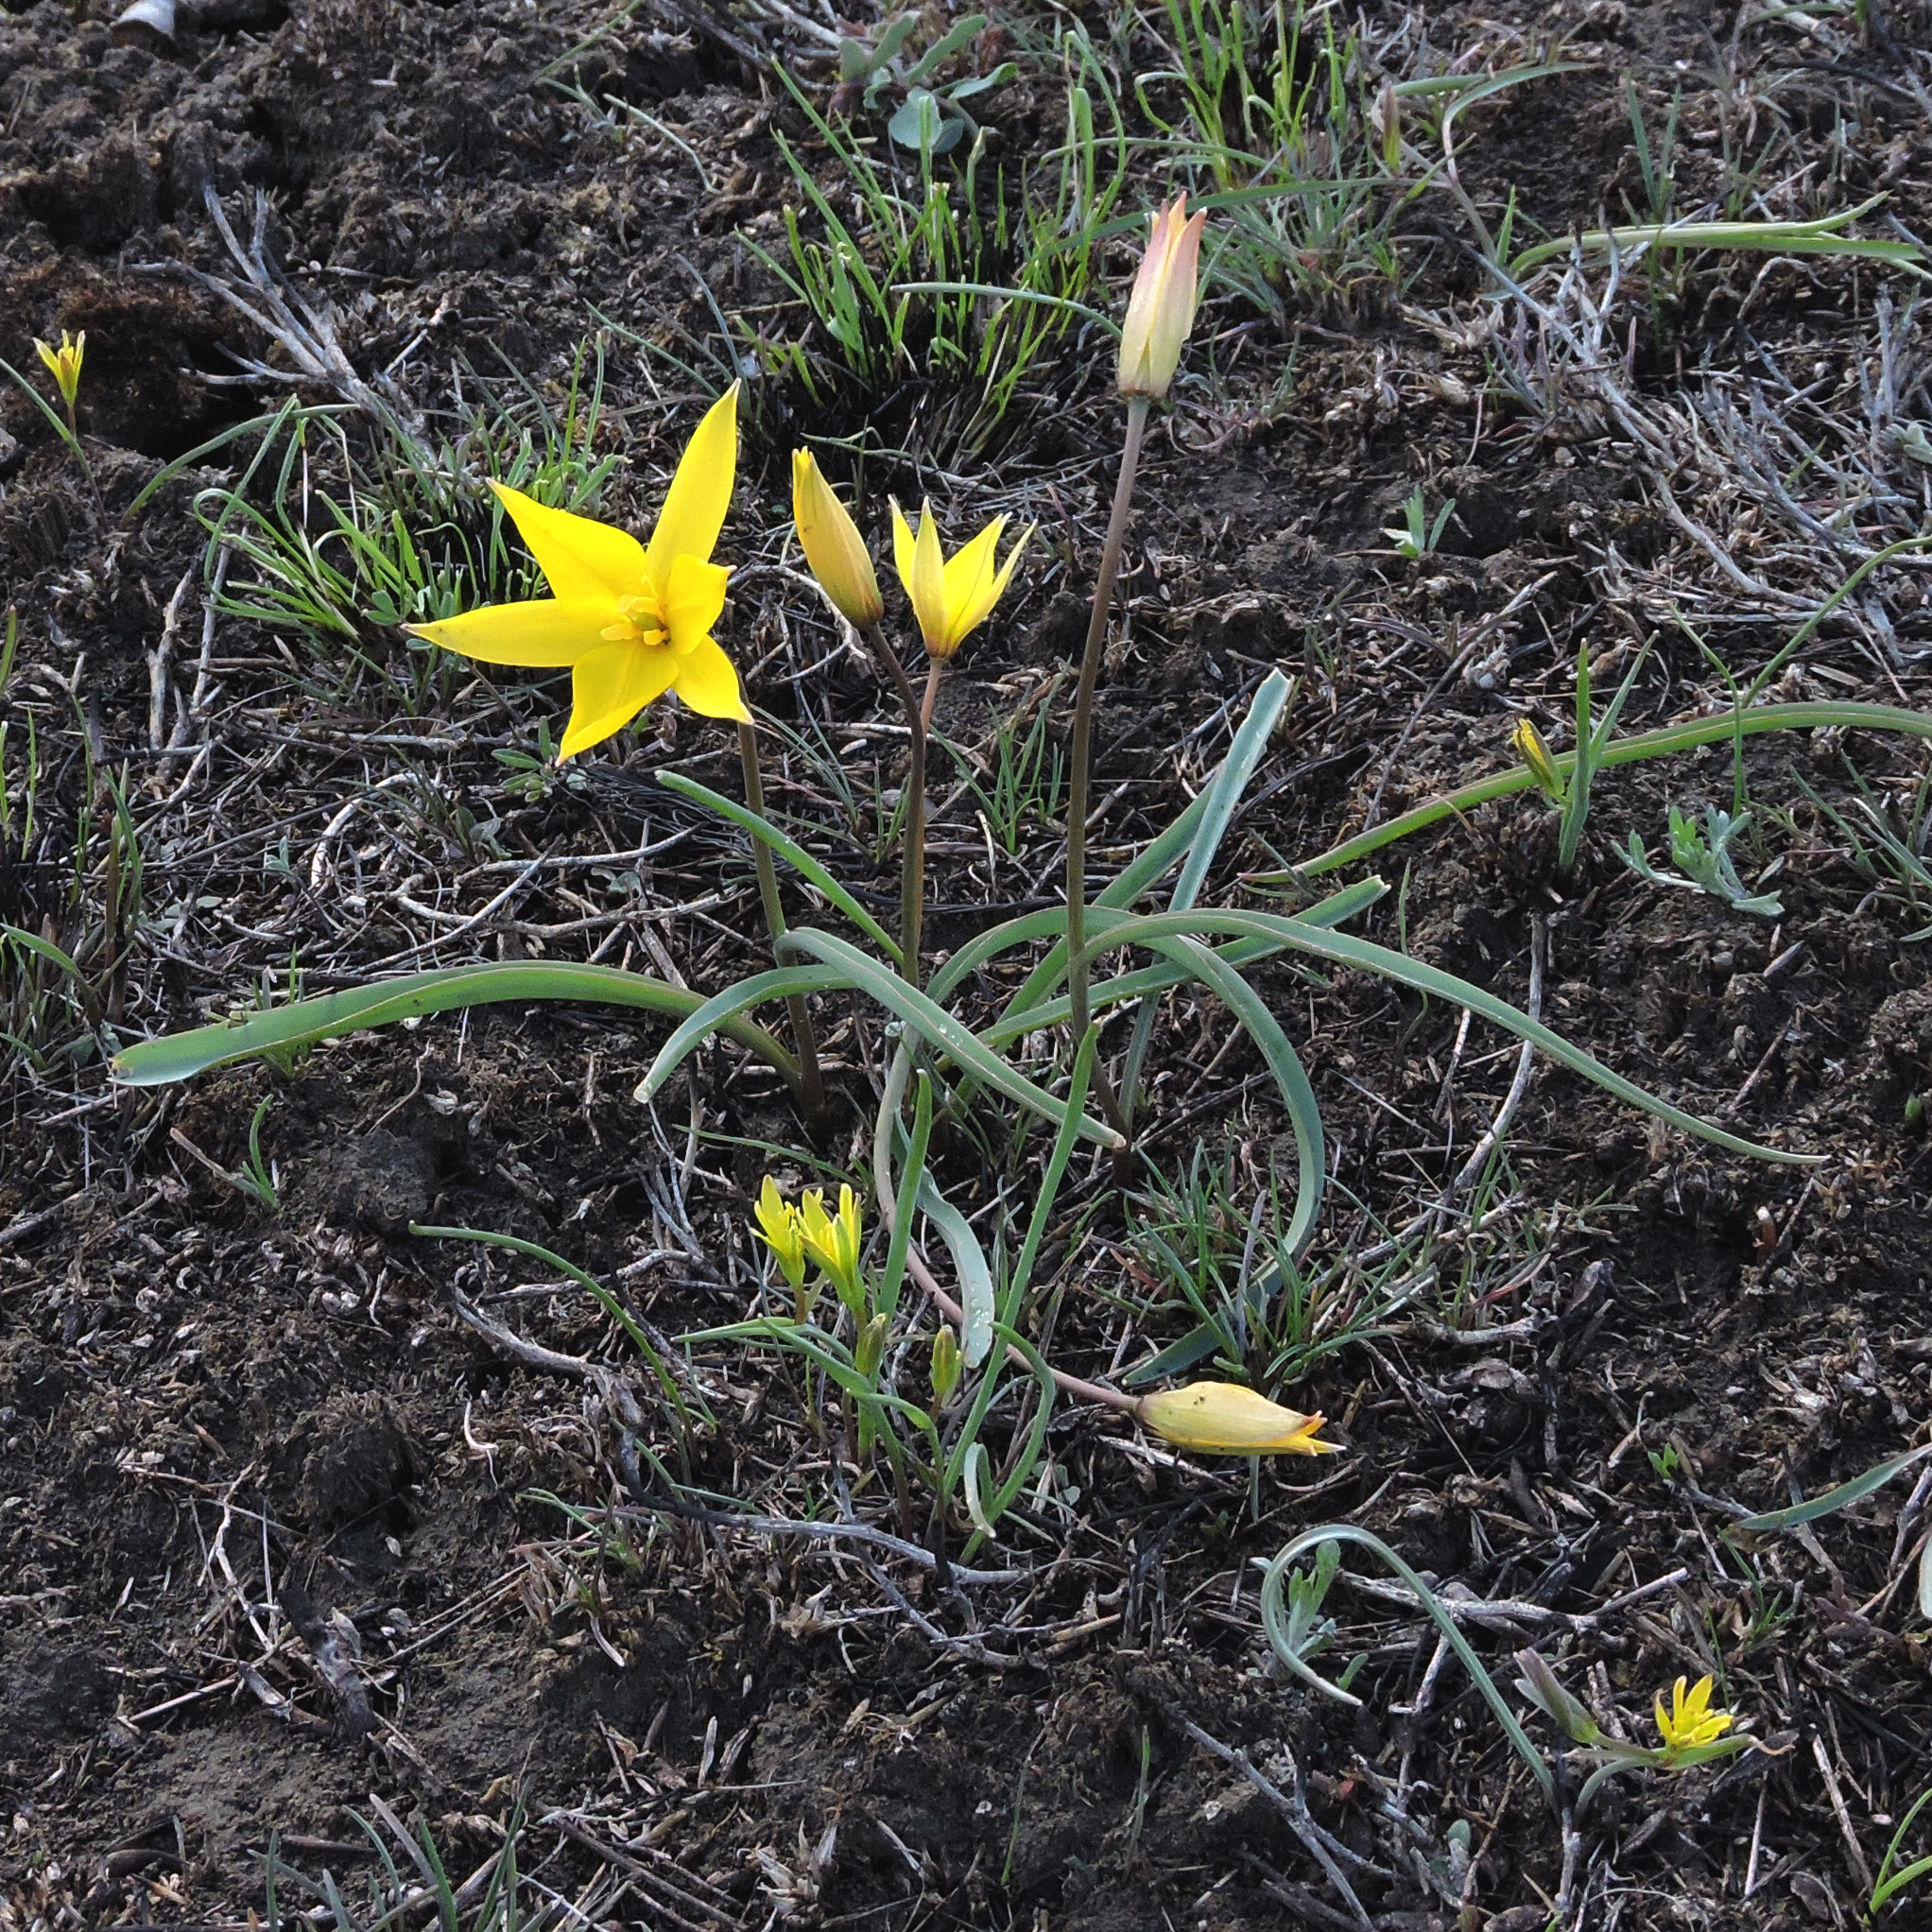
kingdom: Plantae
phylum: Tracheophyta
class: Liliopsida
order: Liliales
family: Liliaceae
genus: Tulipa
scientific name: Tulipa sylvestris
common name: Wild tulip
